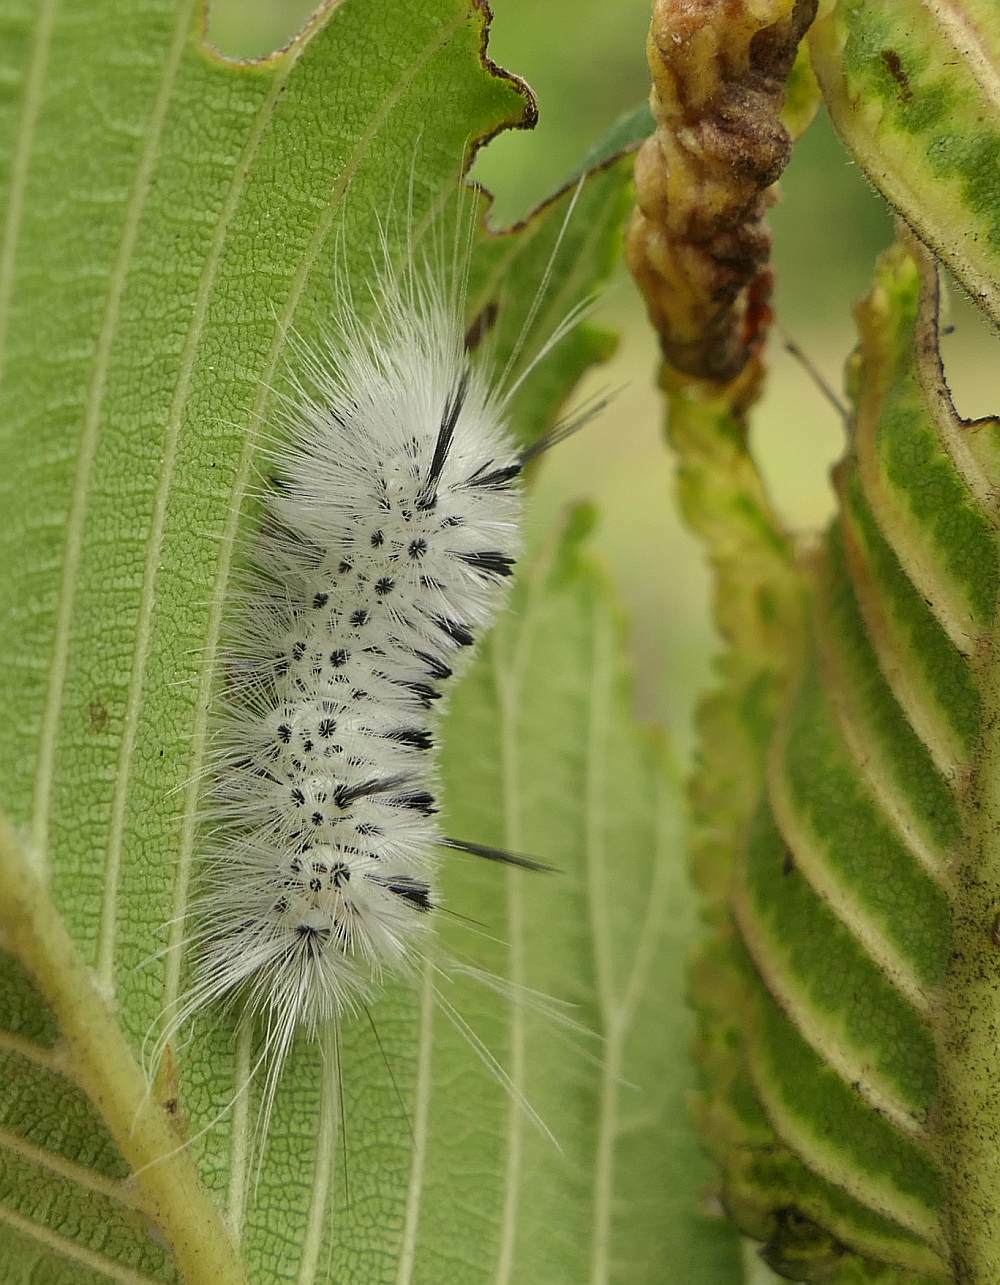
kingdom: Animalia
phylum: Arthropoda
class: Insecta
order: Lepidoptera
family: Erebidae
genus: Lophocampa
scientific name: Lophocampa caryae
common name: Hickory tussock moth
